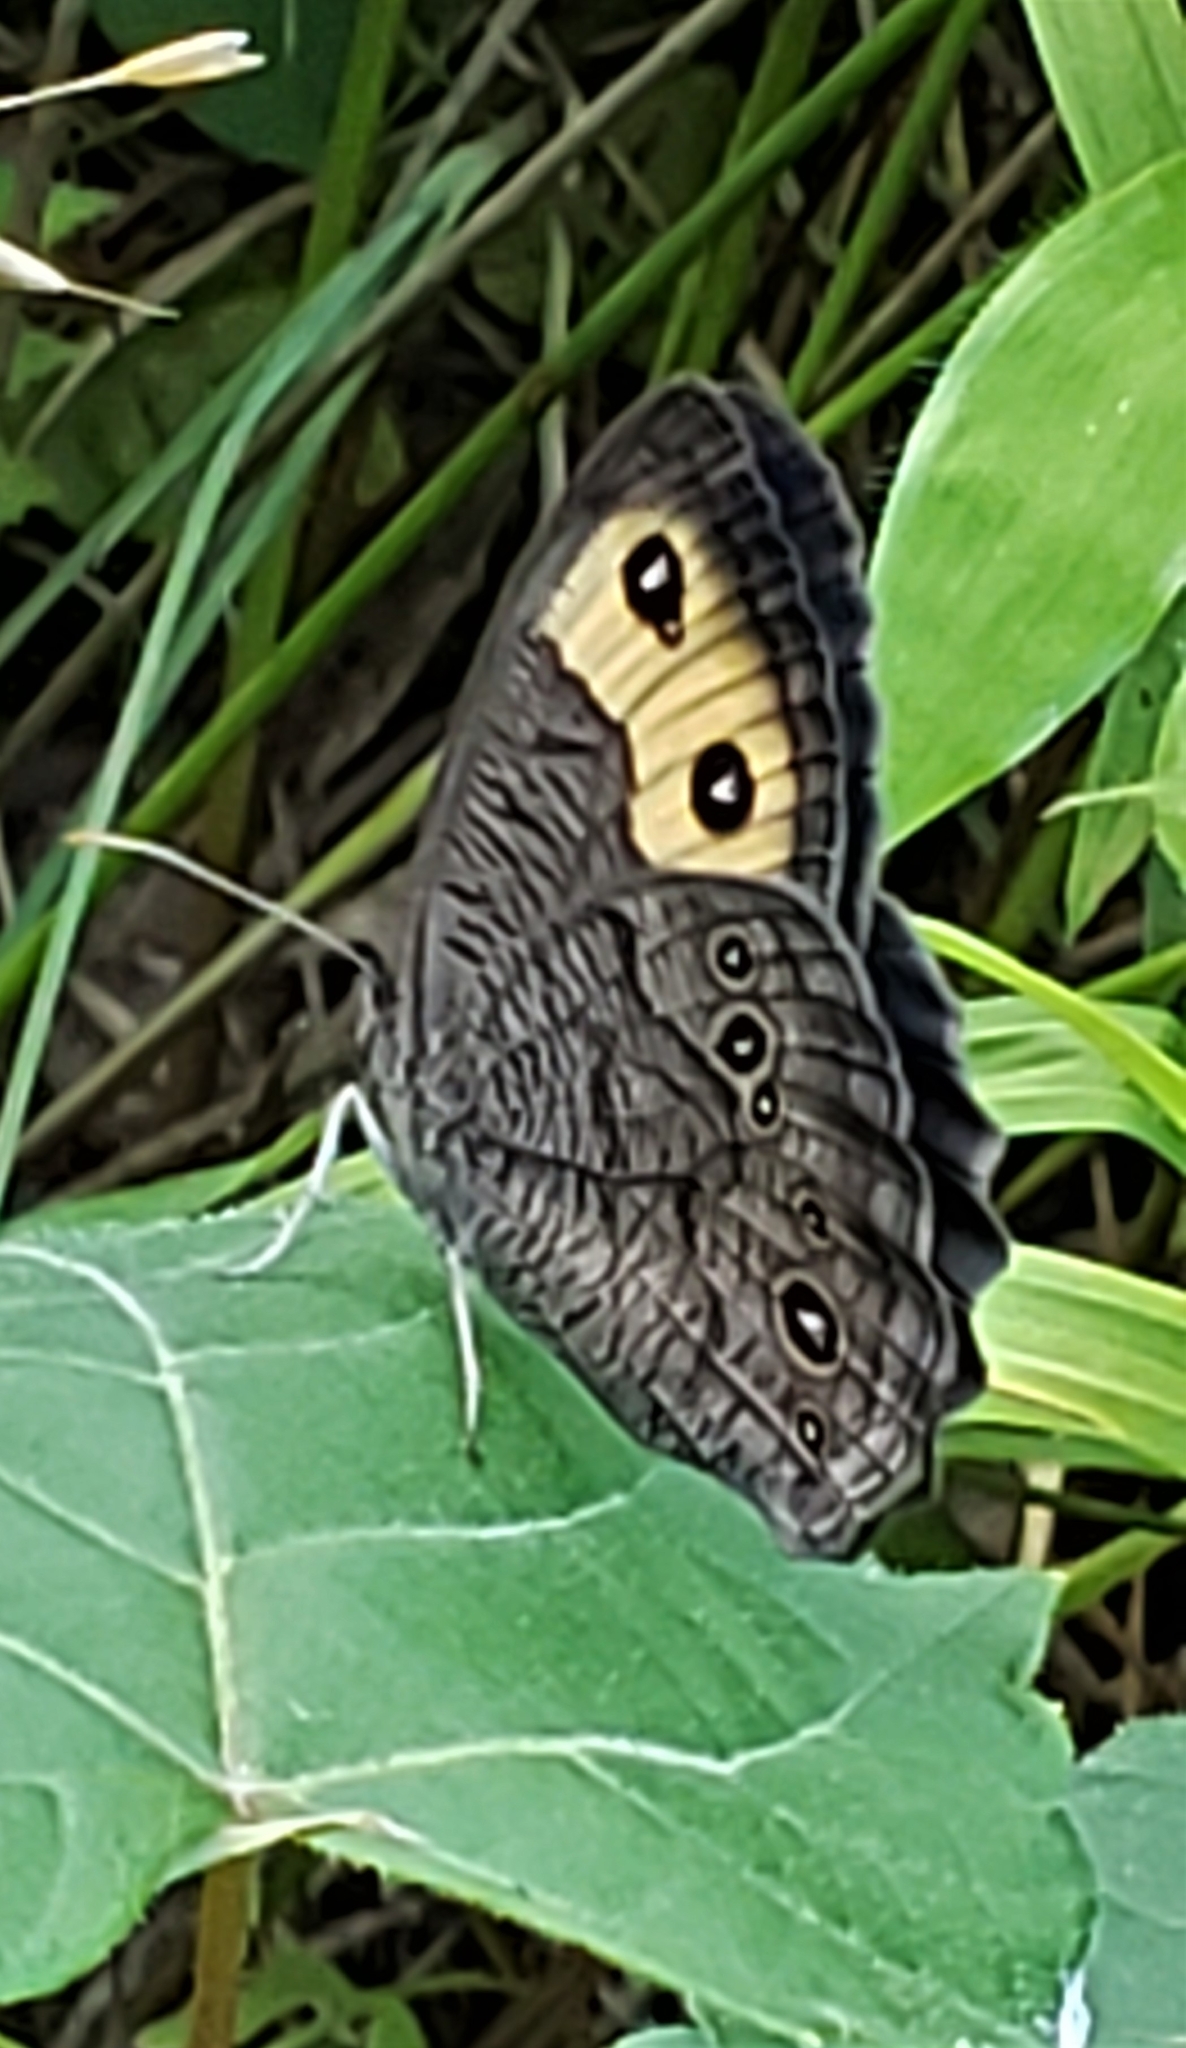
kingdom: Animalia
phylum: Arthropoda
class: Insecta
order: Lepidoptera
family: Nymphalidae
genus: Cercyonis
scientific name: Cercyonis pegala
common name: Common wood-nymph
